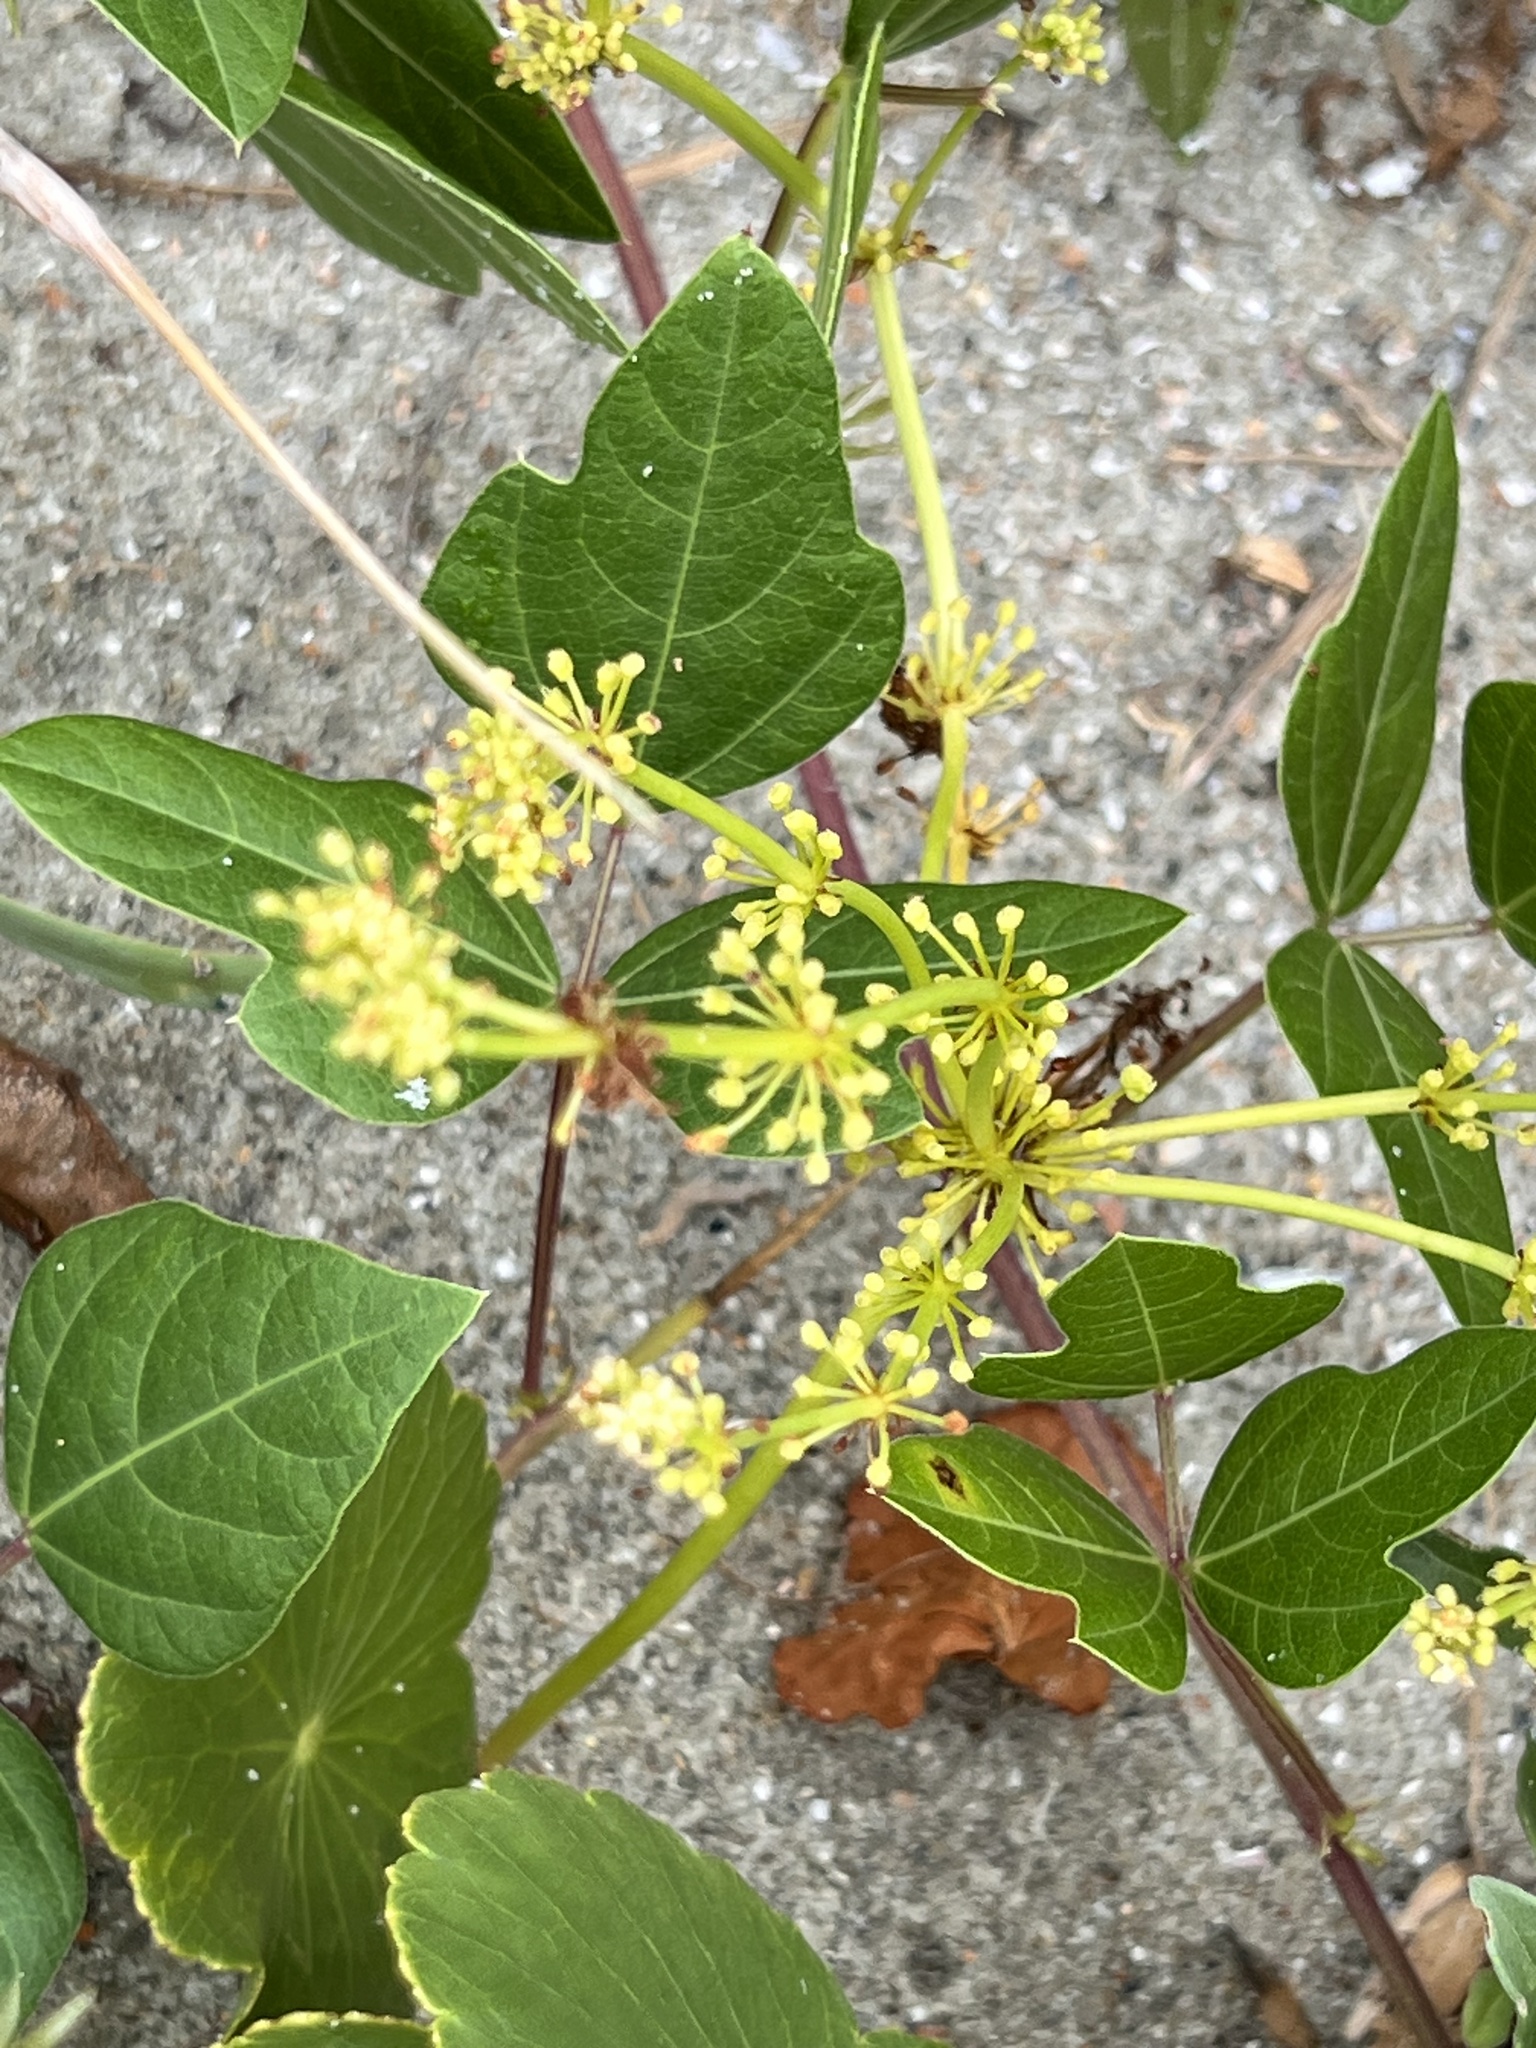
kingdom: Plantae
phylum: Tracheophyta
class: Magnoliopsida
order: Apiales
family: Araliaceae
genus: Hydrocotyle
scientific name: Hydrocotyle bonariensis
